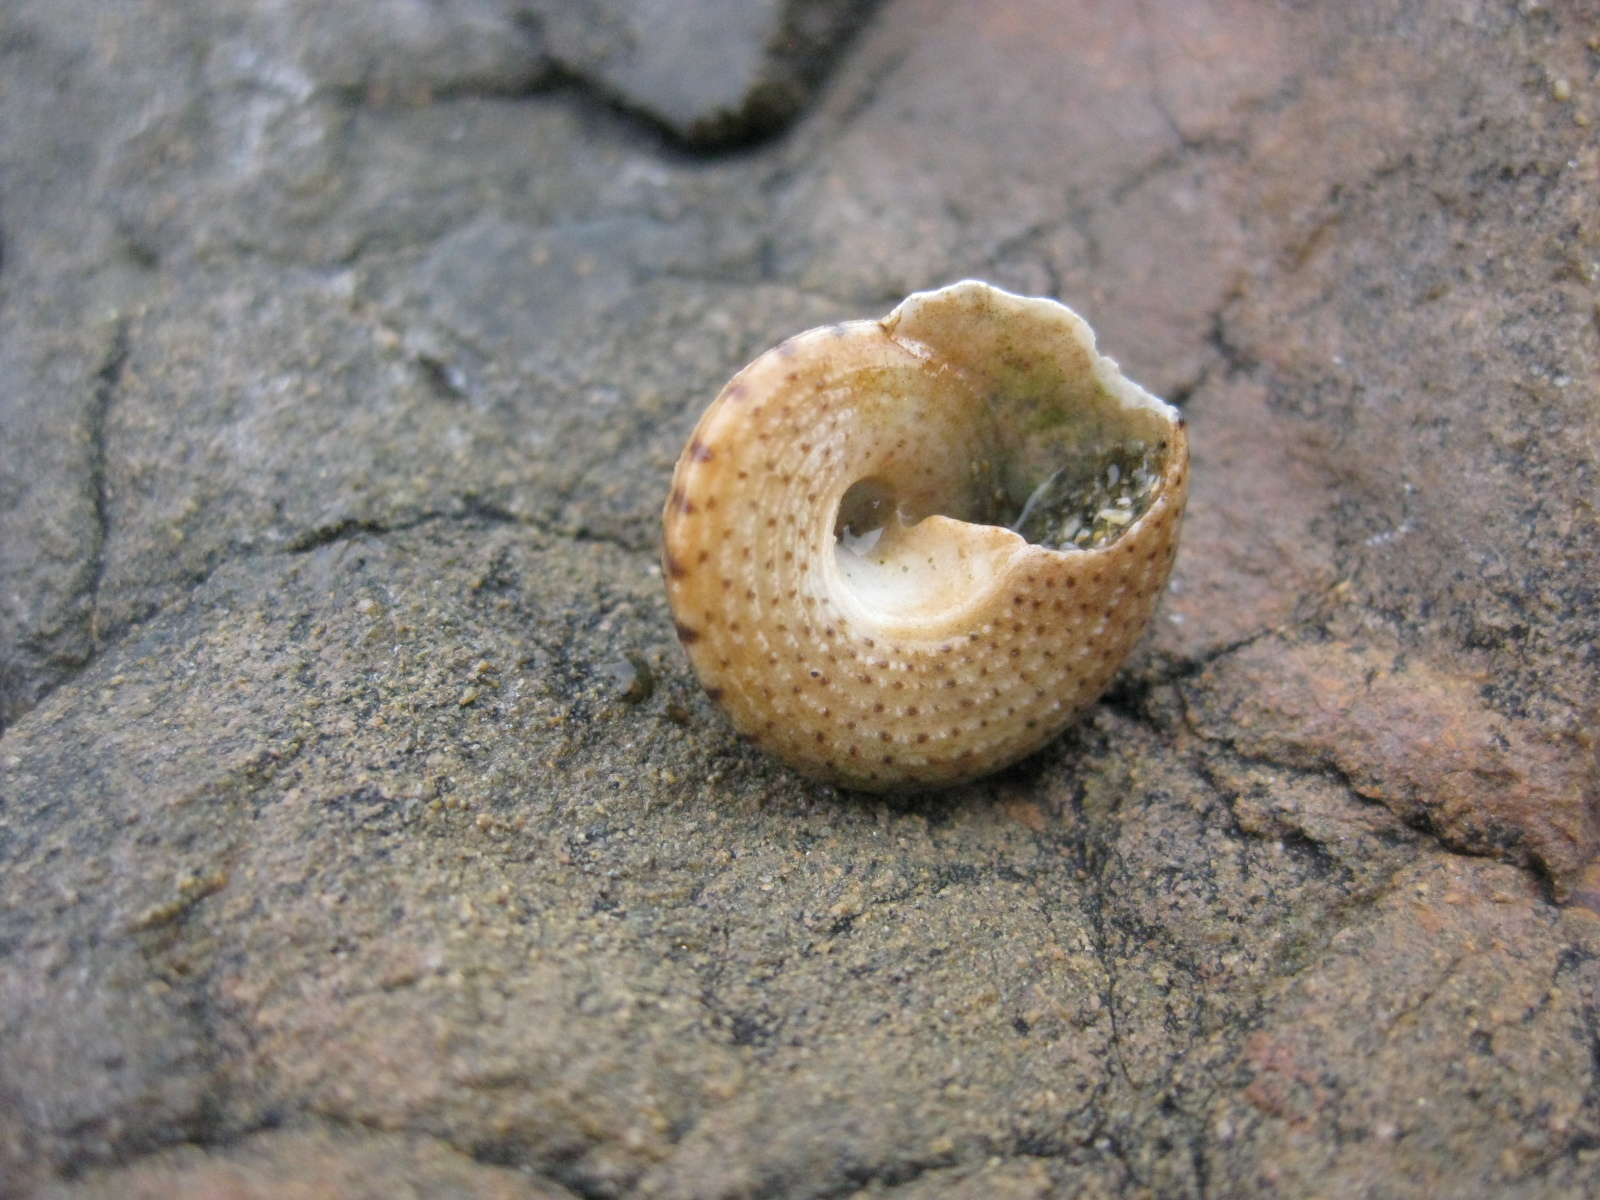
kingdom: Animalia
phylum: Mollusca
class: Gastropoda
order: Trochida
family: Trochidae
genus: Coelotrochus
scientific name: Coelotrochus tiaratus
